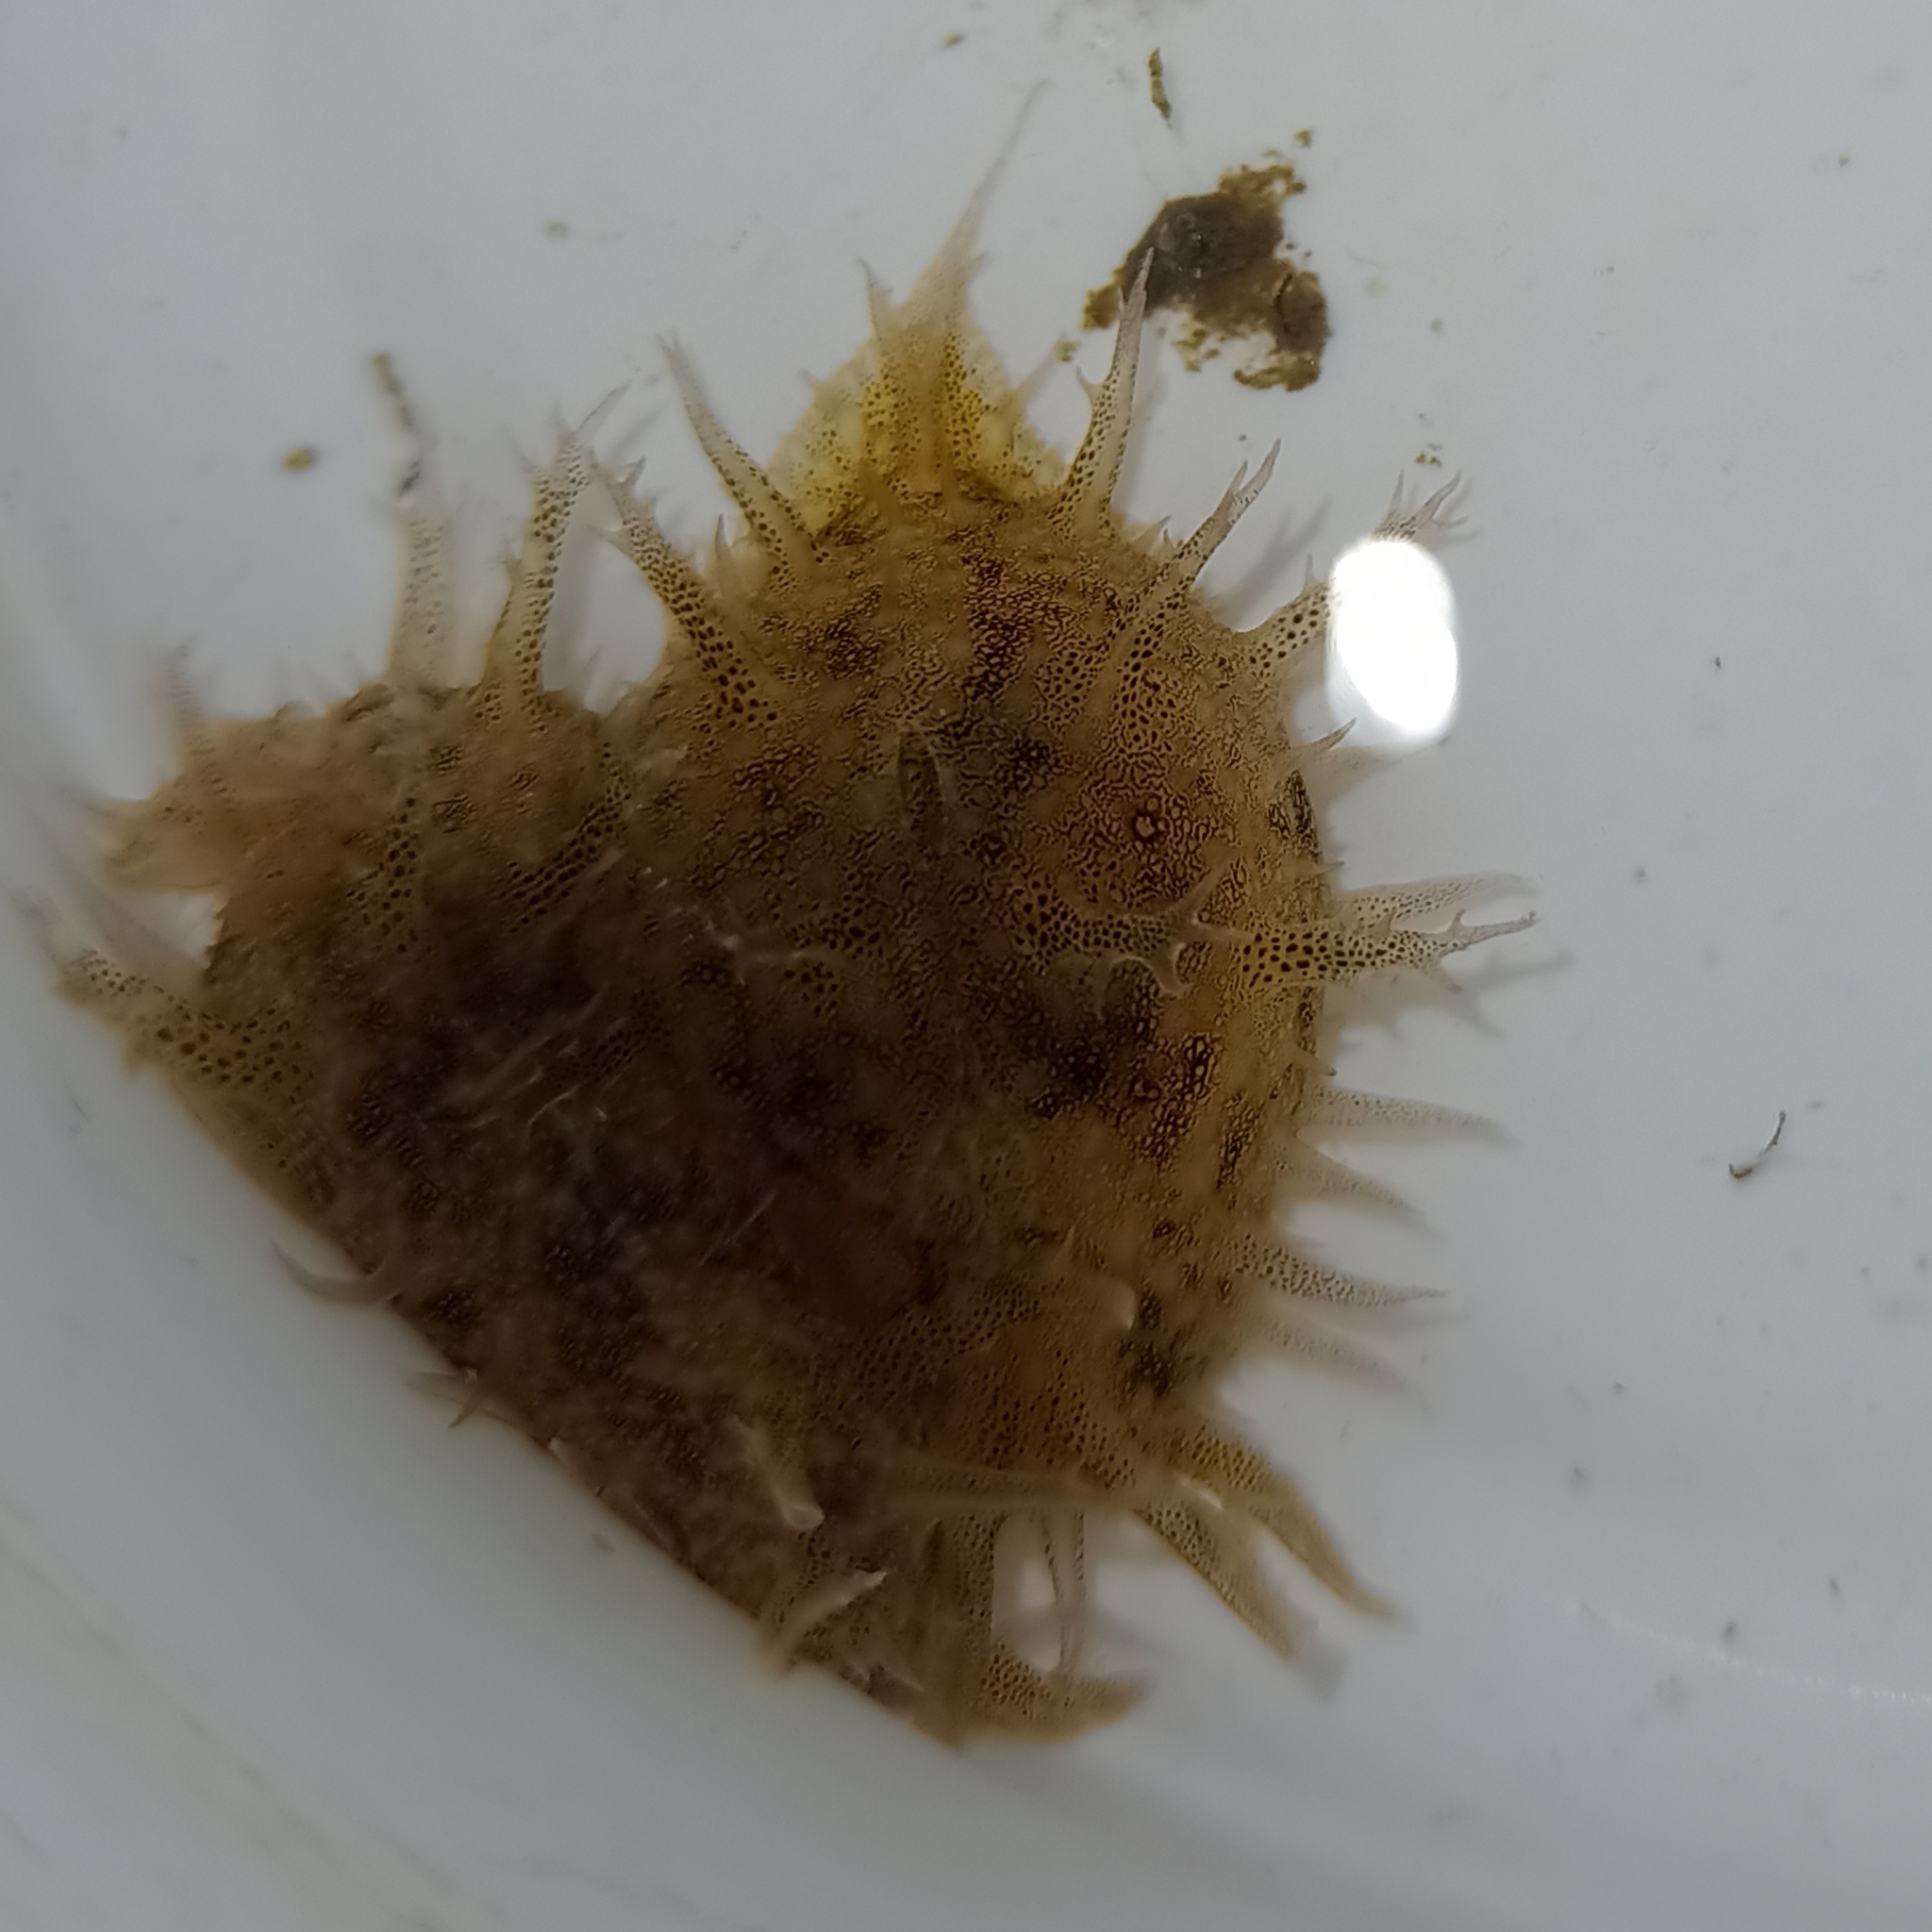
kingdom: Animalia
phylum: Mollusca
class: Gastropoda
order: Aplysiida
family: Aplysiidae
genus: Bursatella
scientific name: Bursatella leachii
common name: Shaggy sea hare
